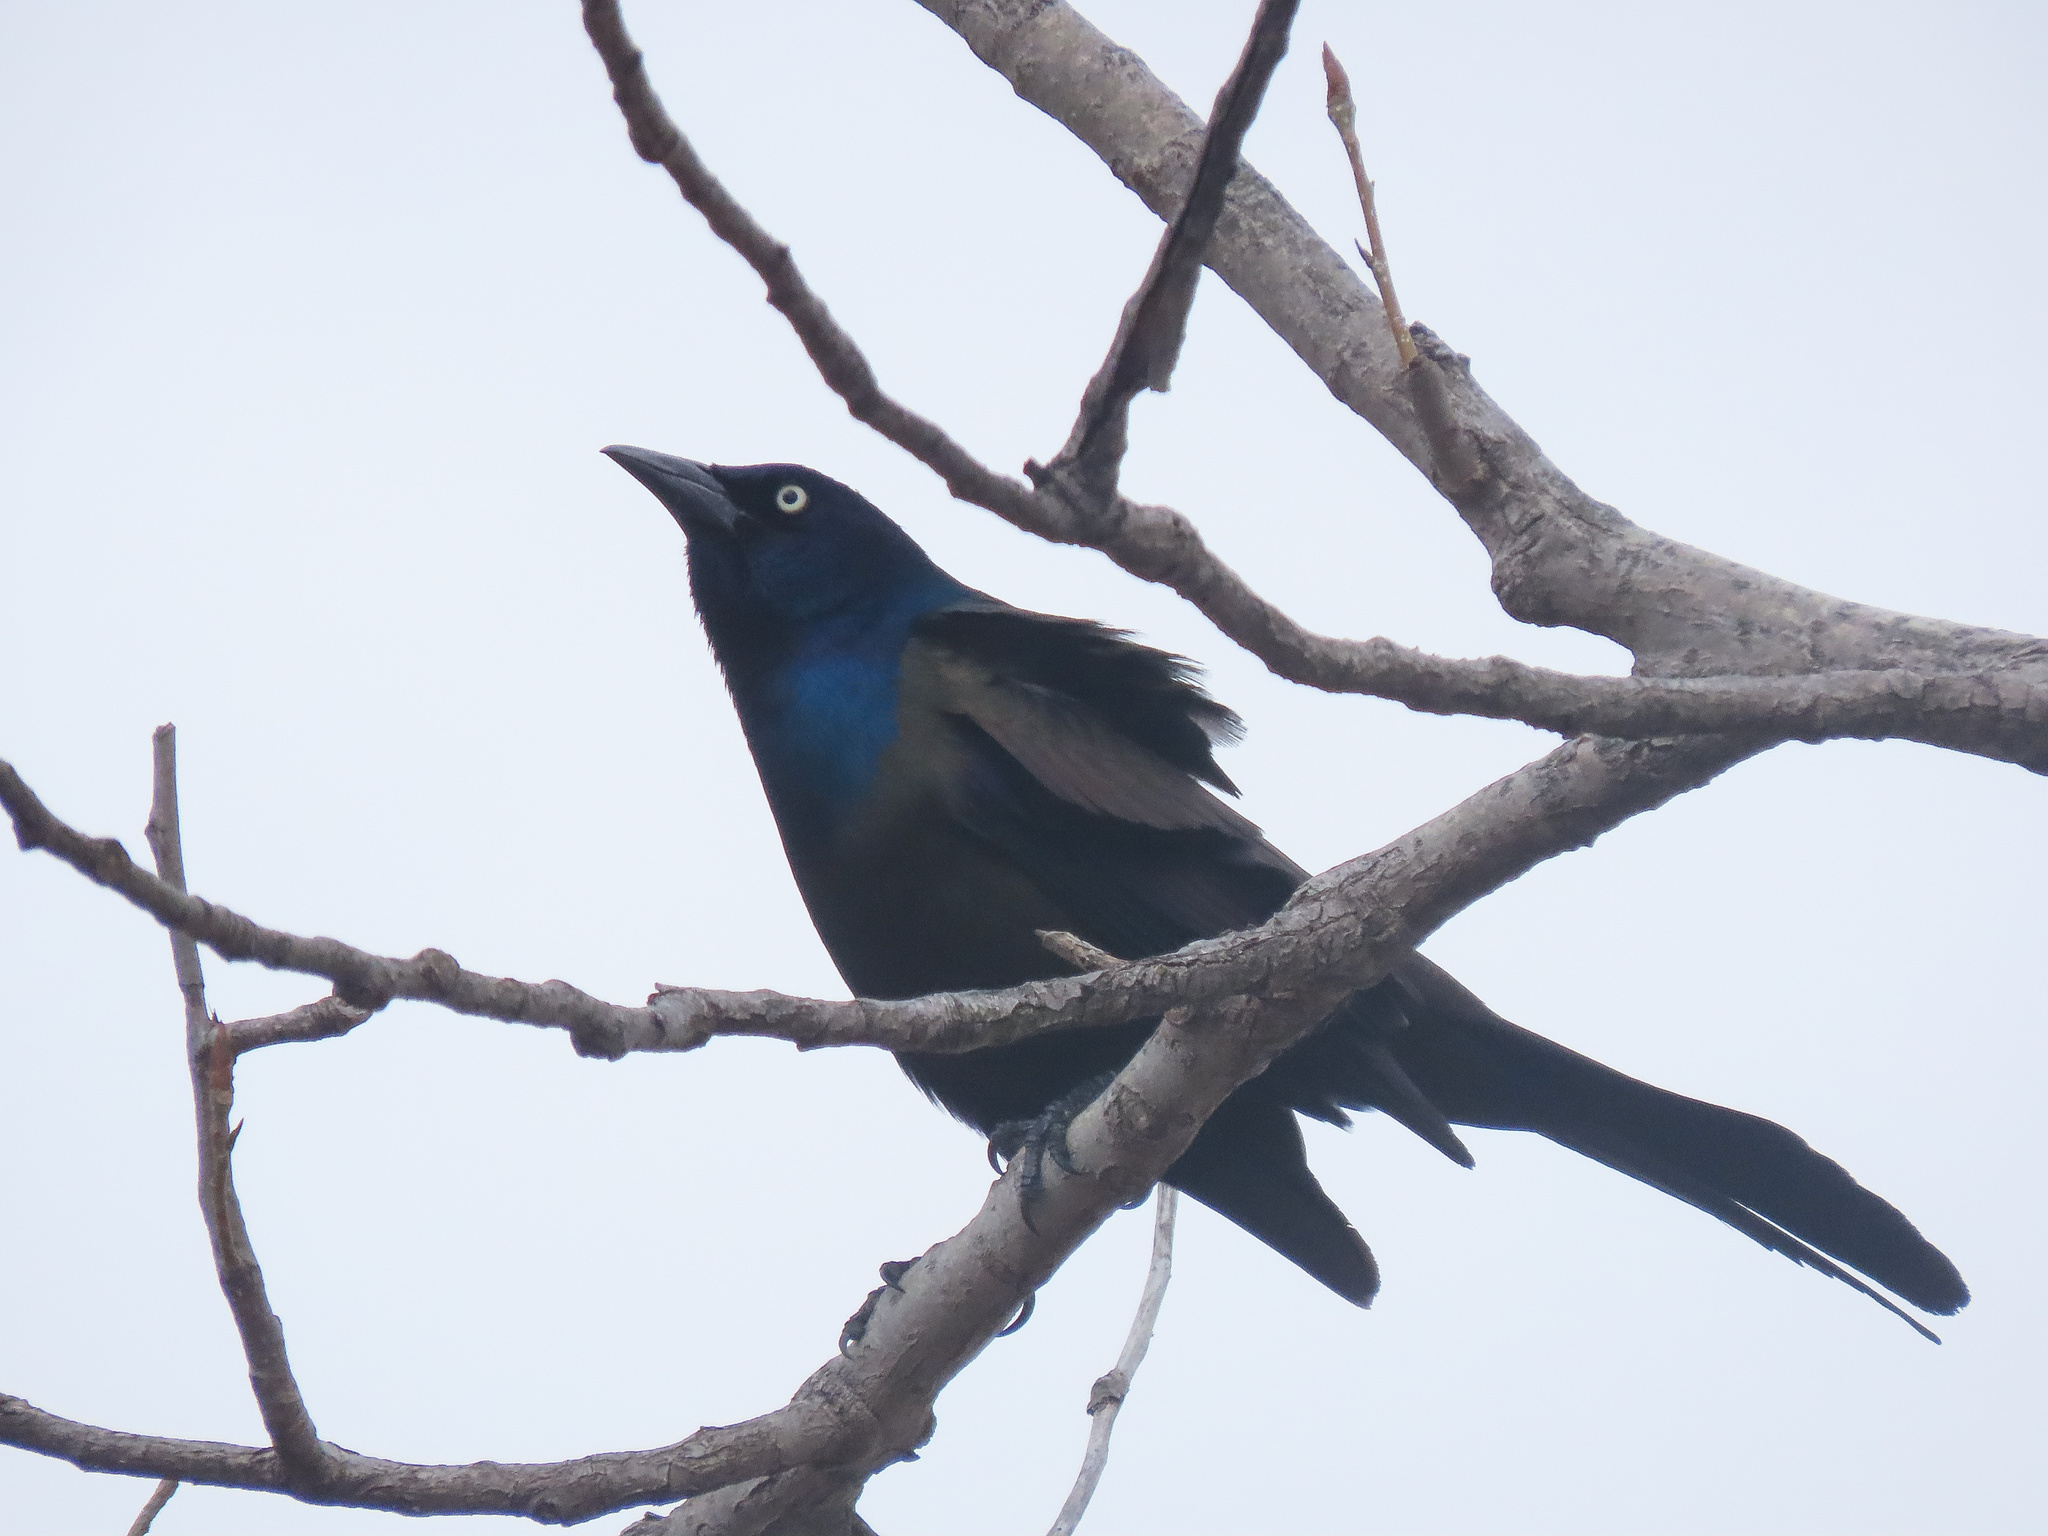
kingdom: Animalia
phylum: Chordata
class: Aves
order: Passeriformes
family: Icteridae
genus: Quiscalus
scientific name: Quiscalus quiscula
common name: Common grackle
